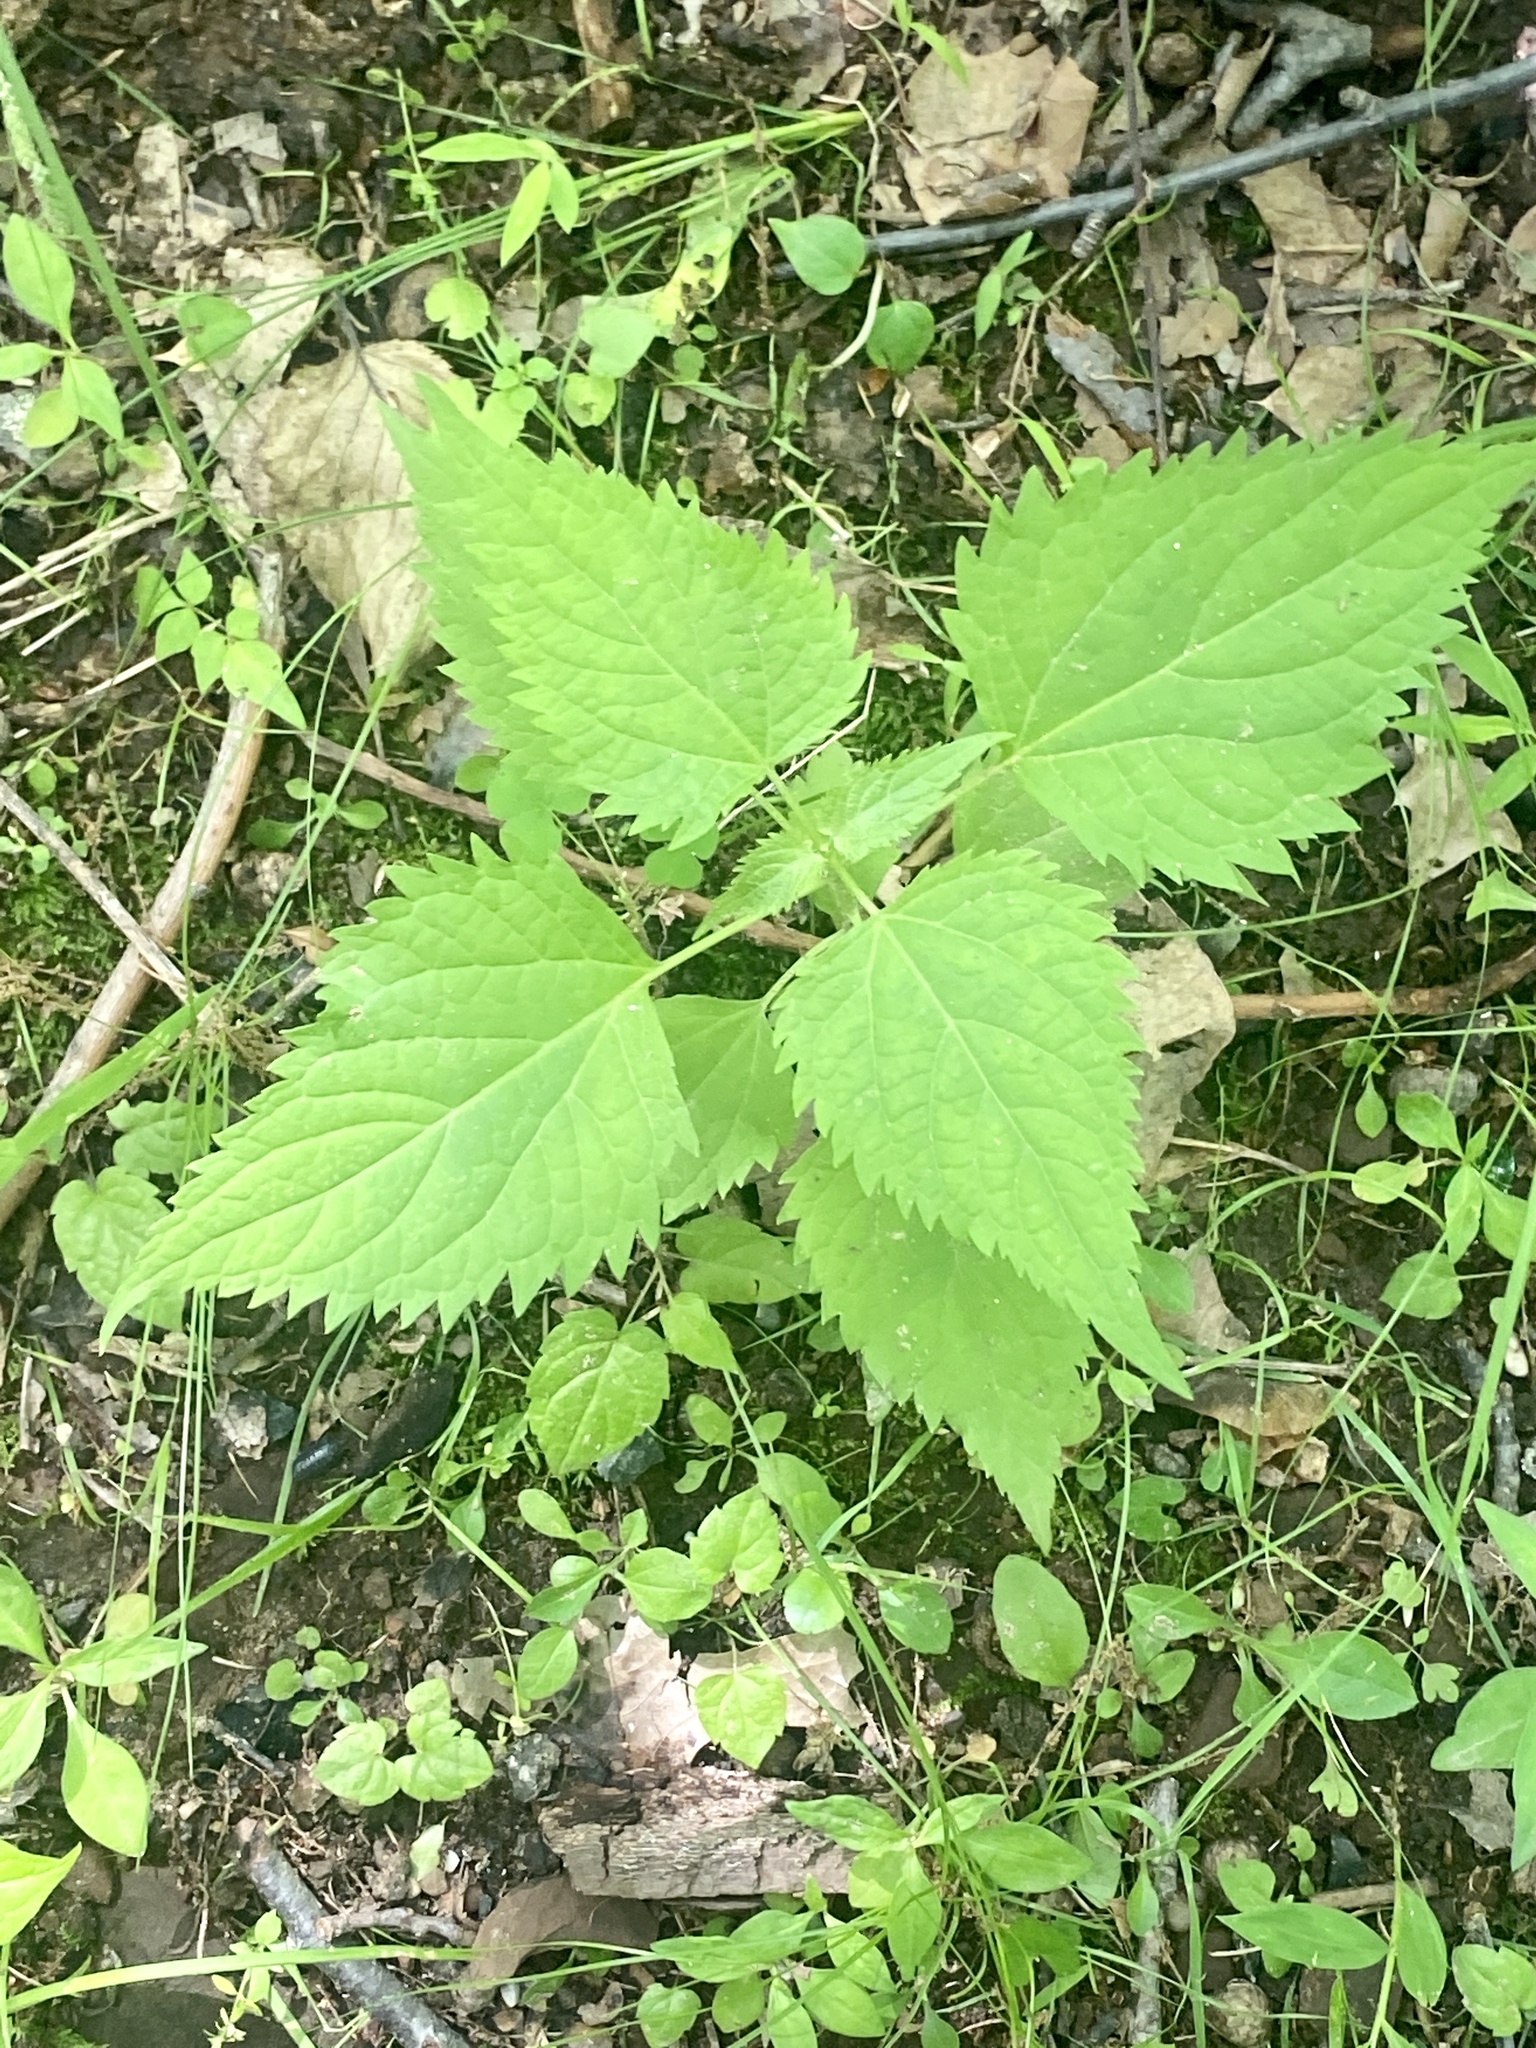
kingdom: Plantae
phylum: Tracheophyta
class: Magnoliopsida
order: Asterales
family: Asteraceae
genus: Ageratina
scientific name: Ageratina altissima
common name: White snakeroot
